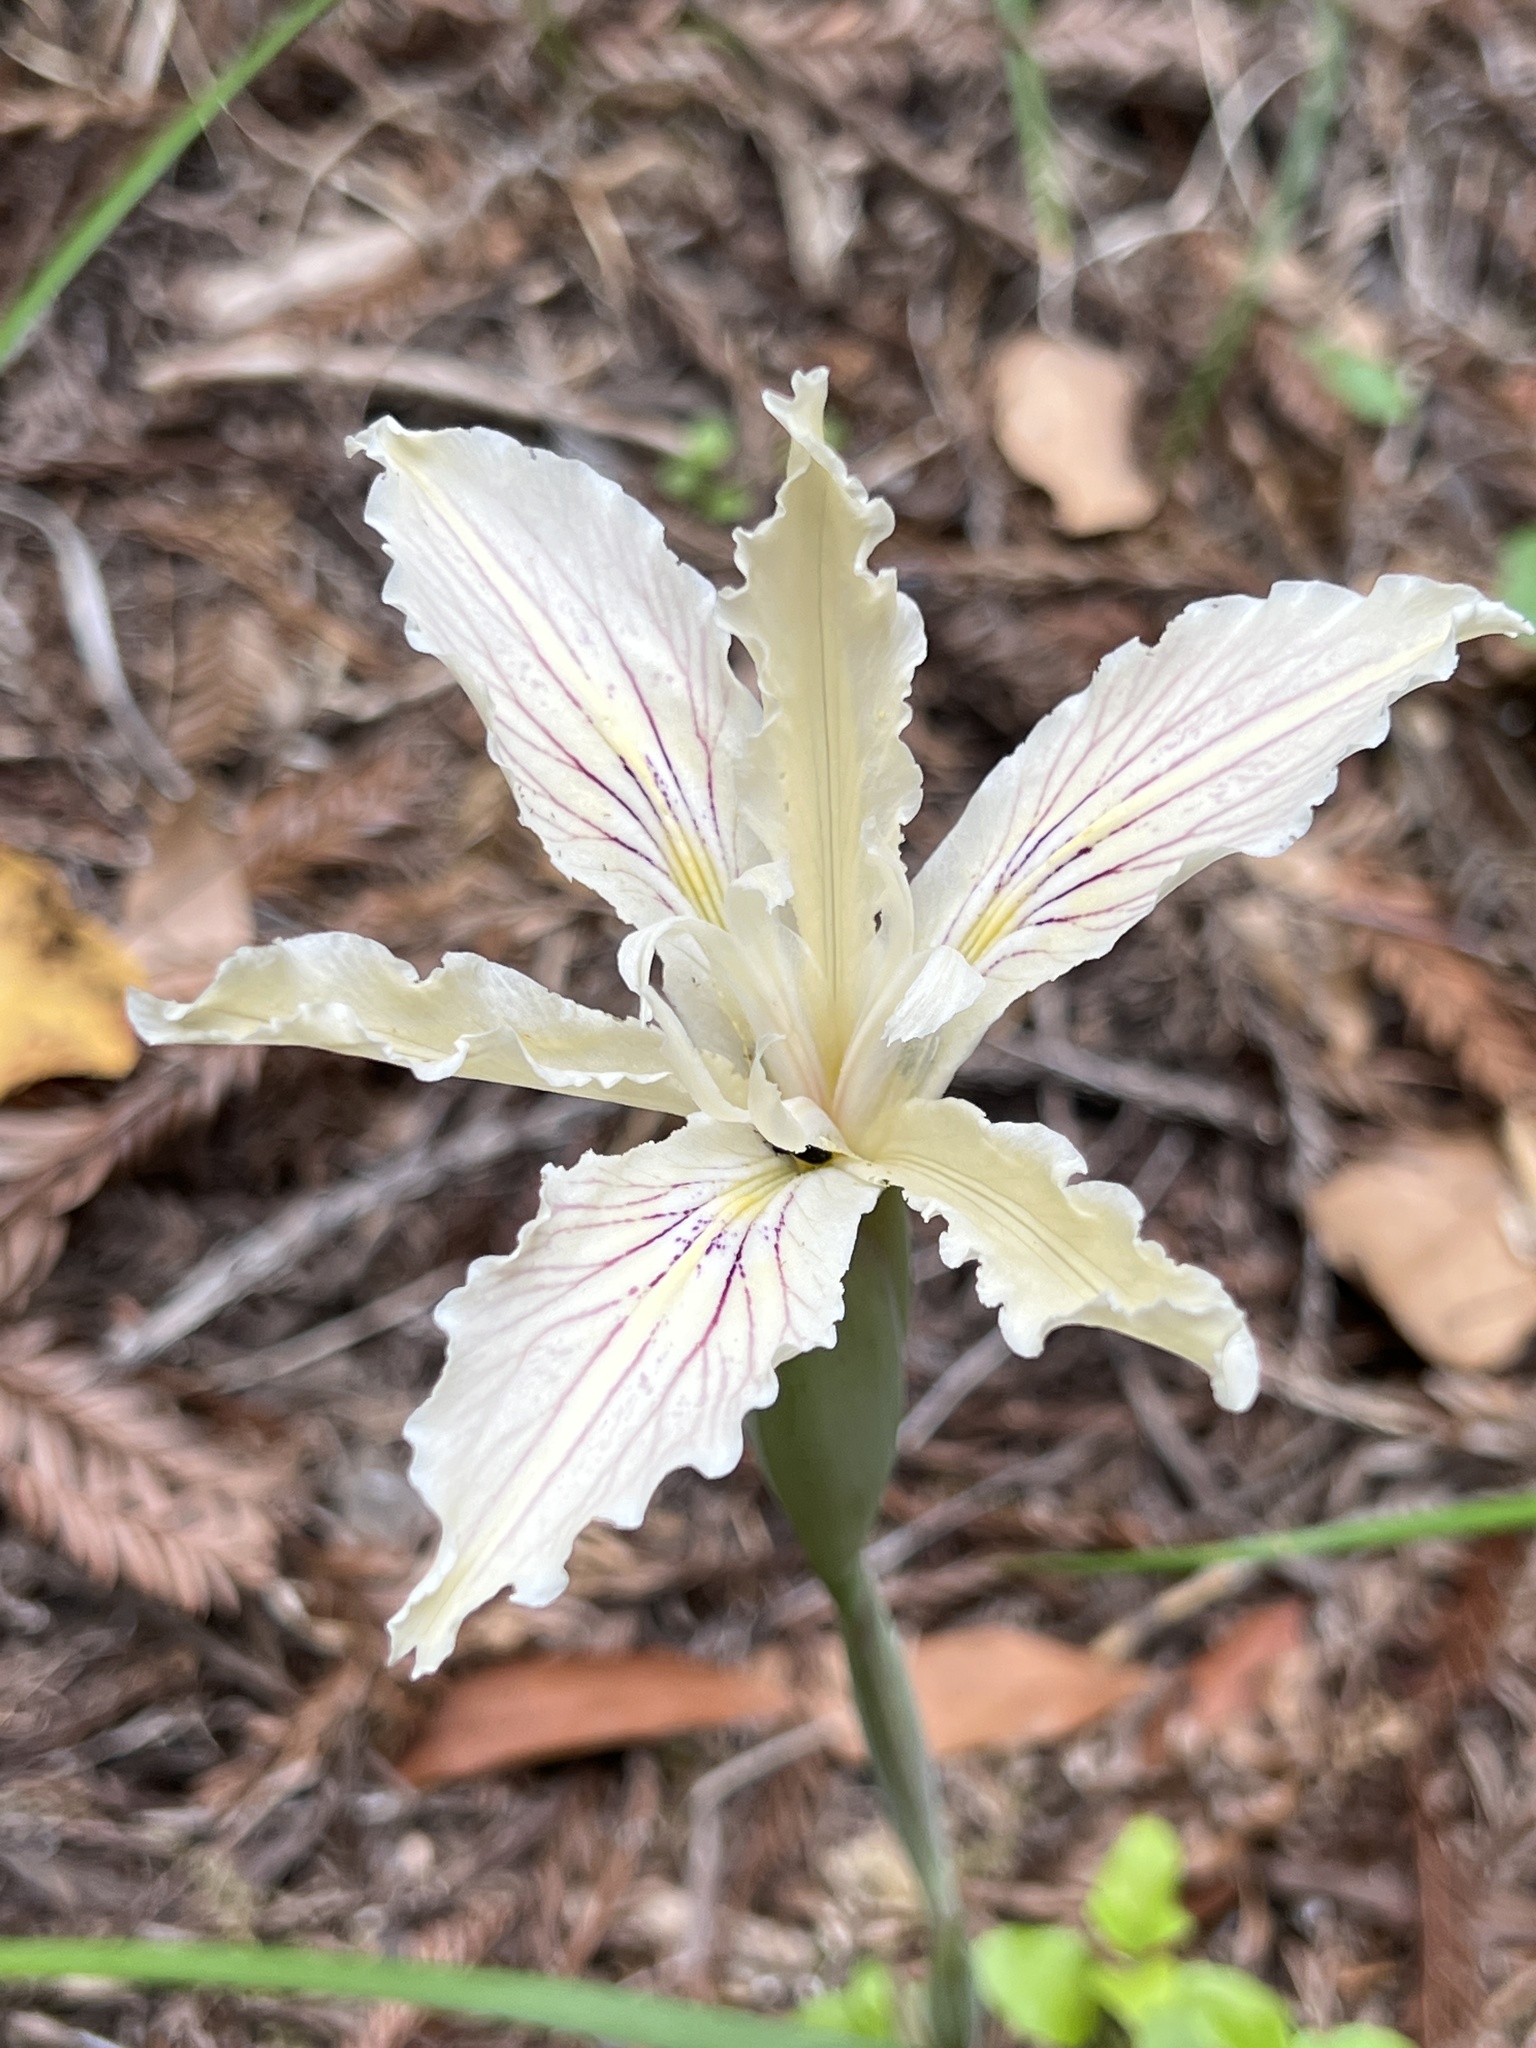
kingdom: Plantae
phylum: Tracheophyta
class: Liliopsida
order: Asparagales
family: Iridaceae
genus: Iris
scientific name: Iris purdyi
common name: Purdy's iris
